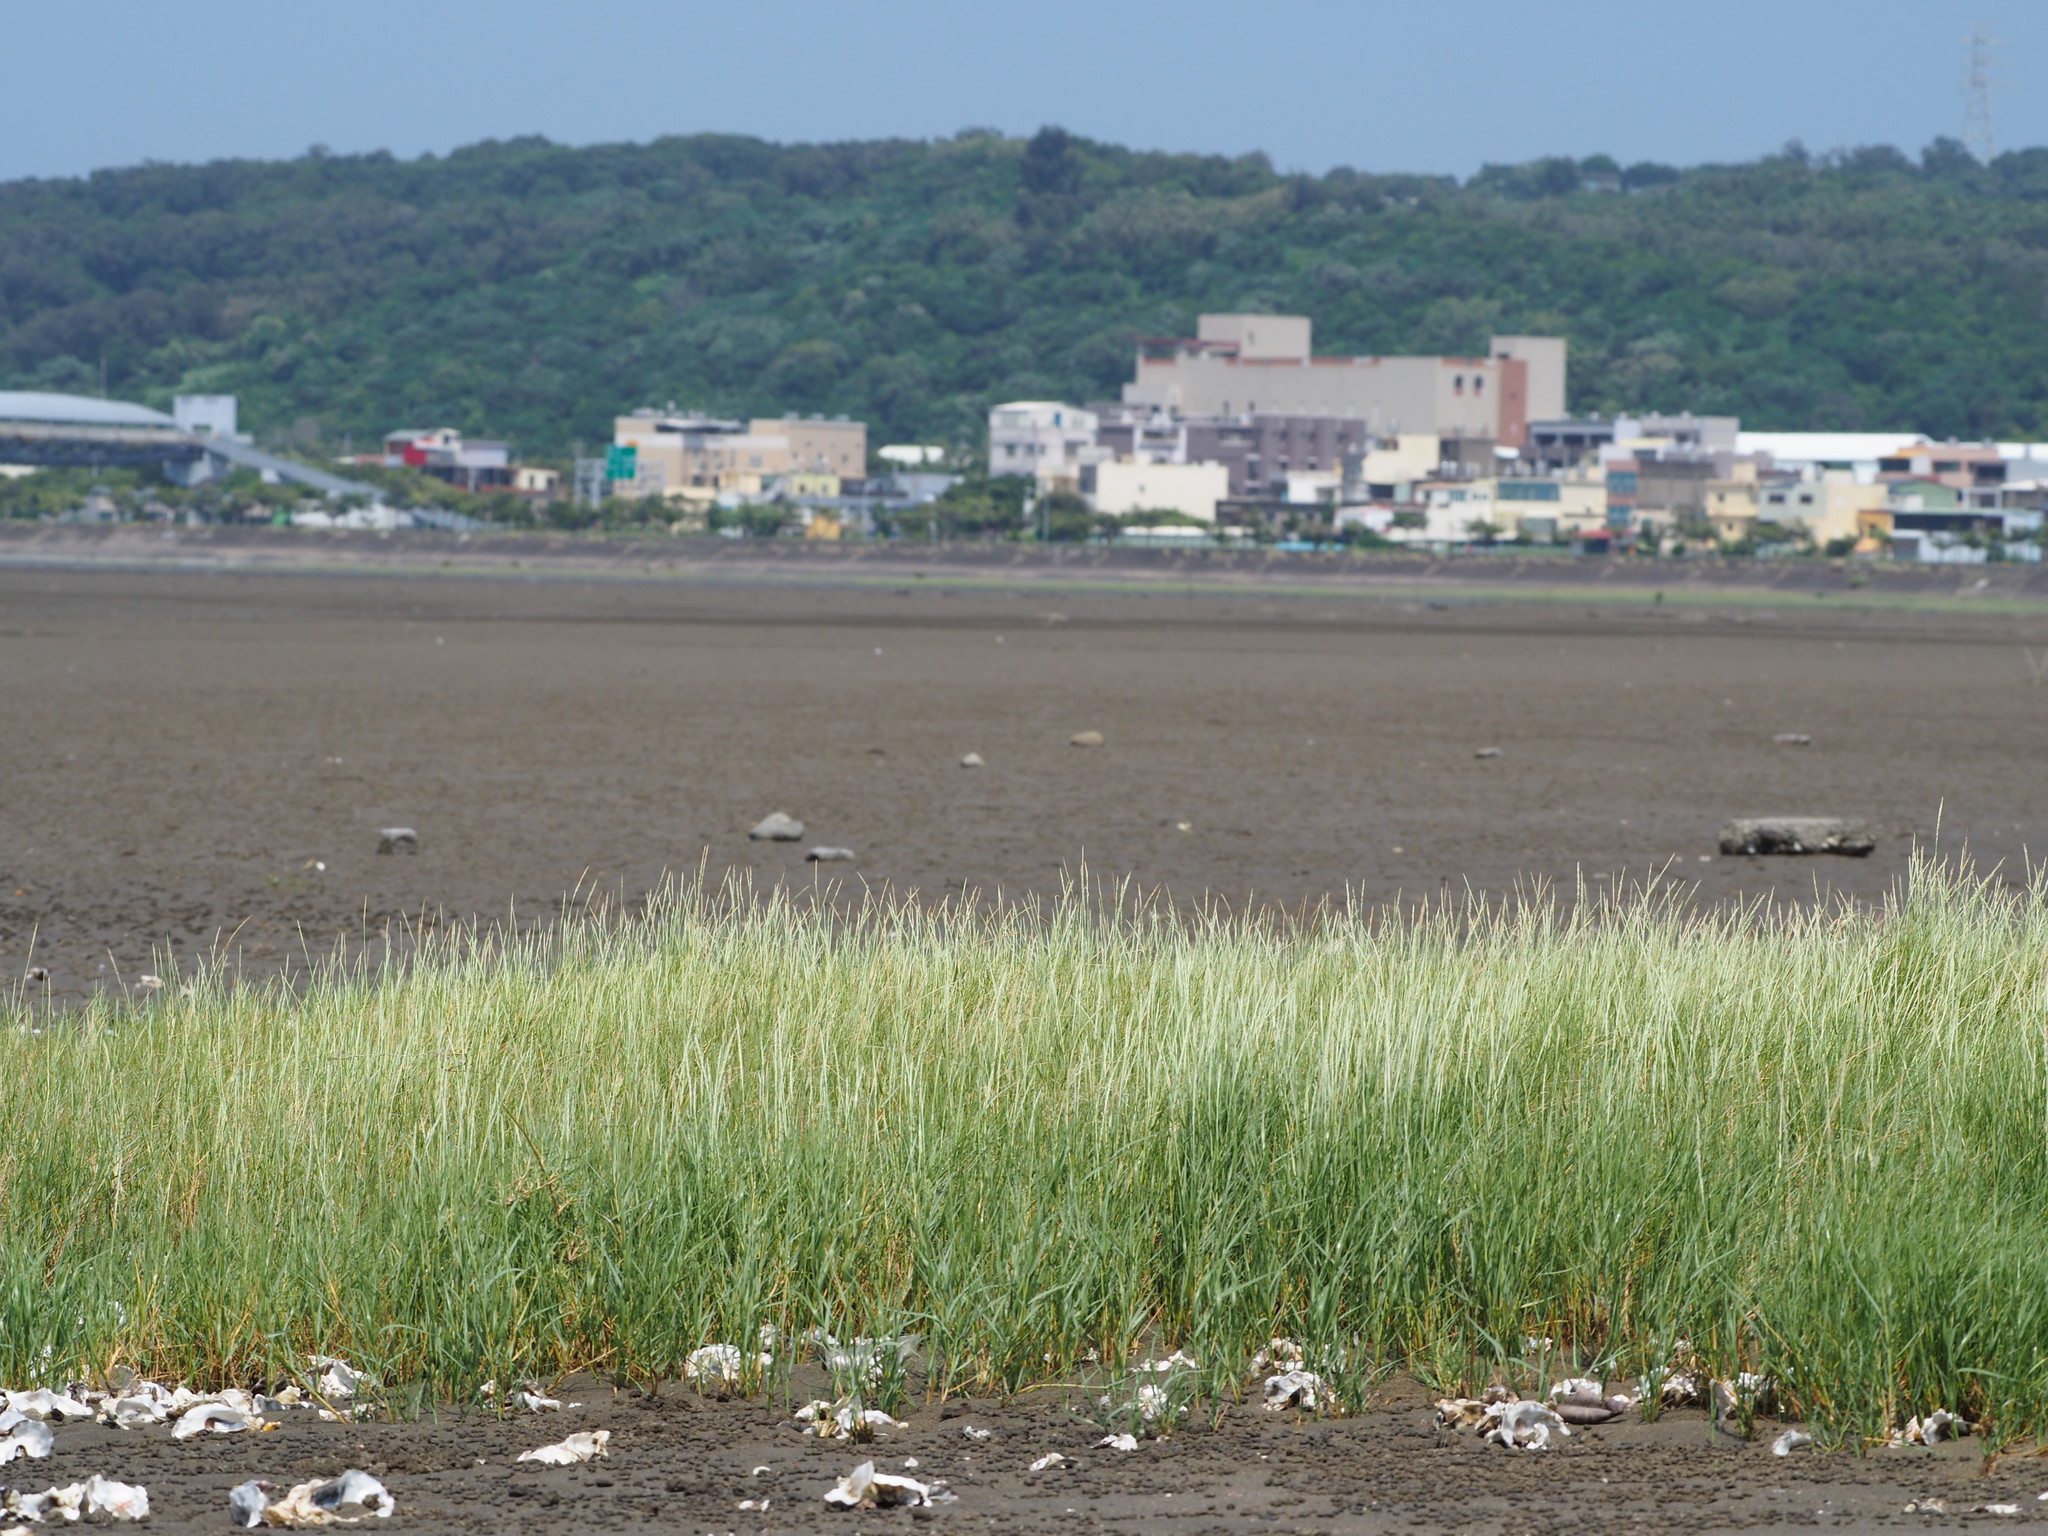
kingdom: Plantae
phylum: Tracheophyta
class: Liliopsida
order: Poales
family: Poaceae
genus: Sporobolus
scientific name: Sporobolus virginicus
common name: Beach dropseed
